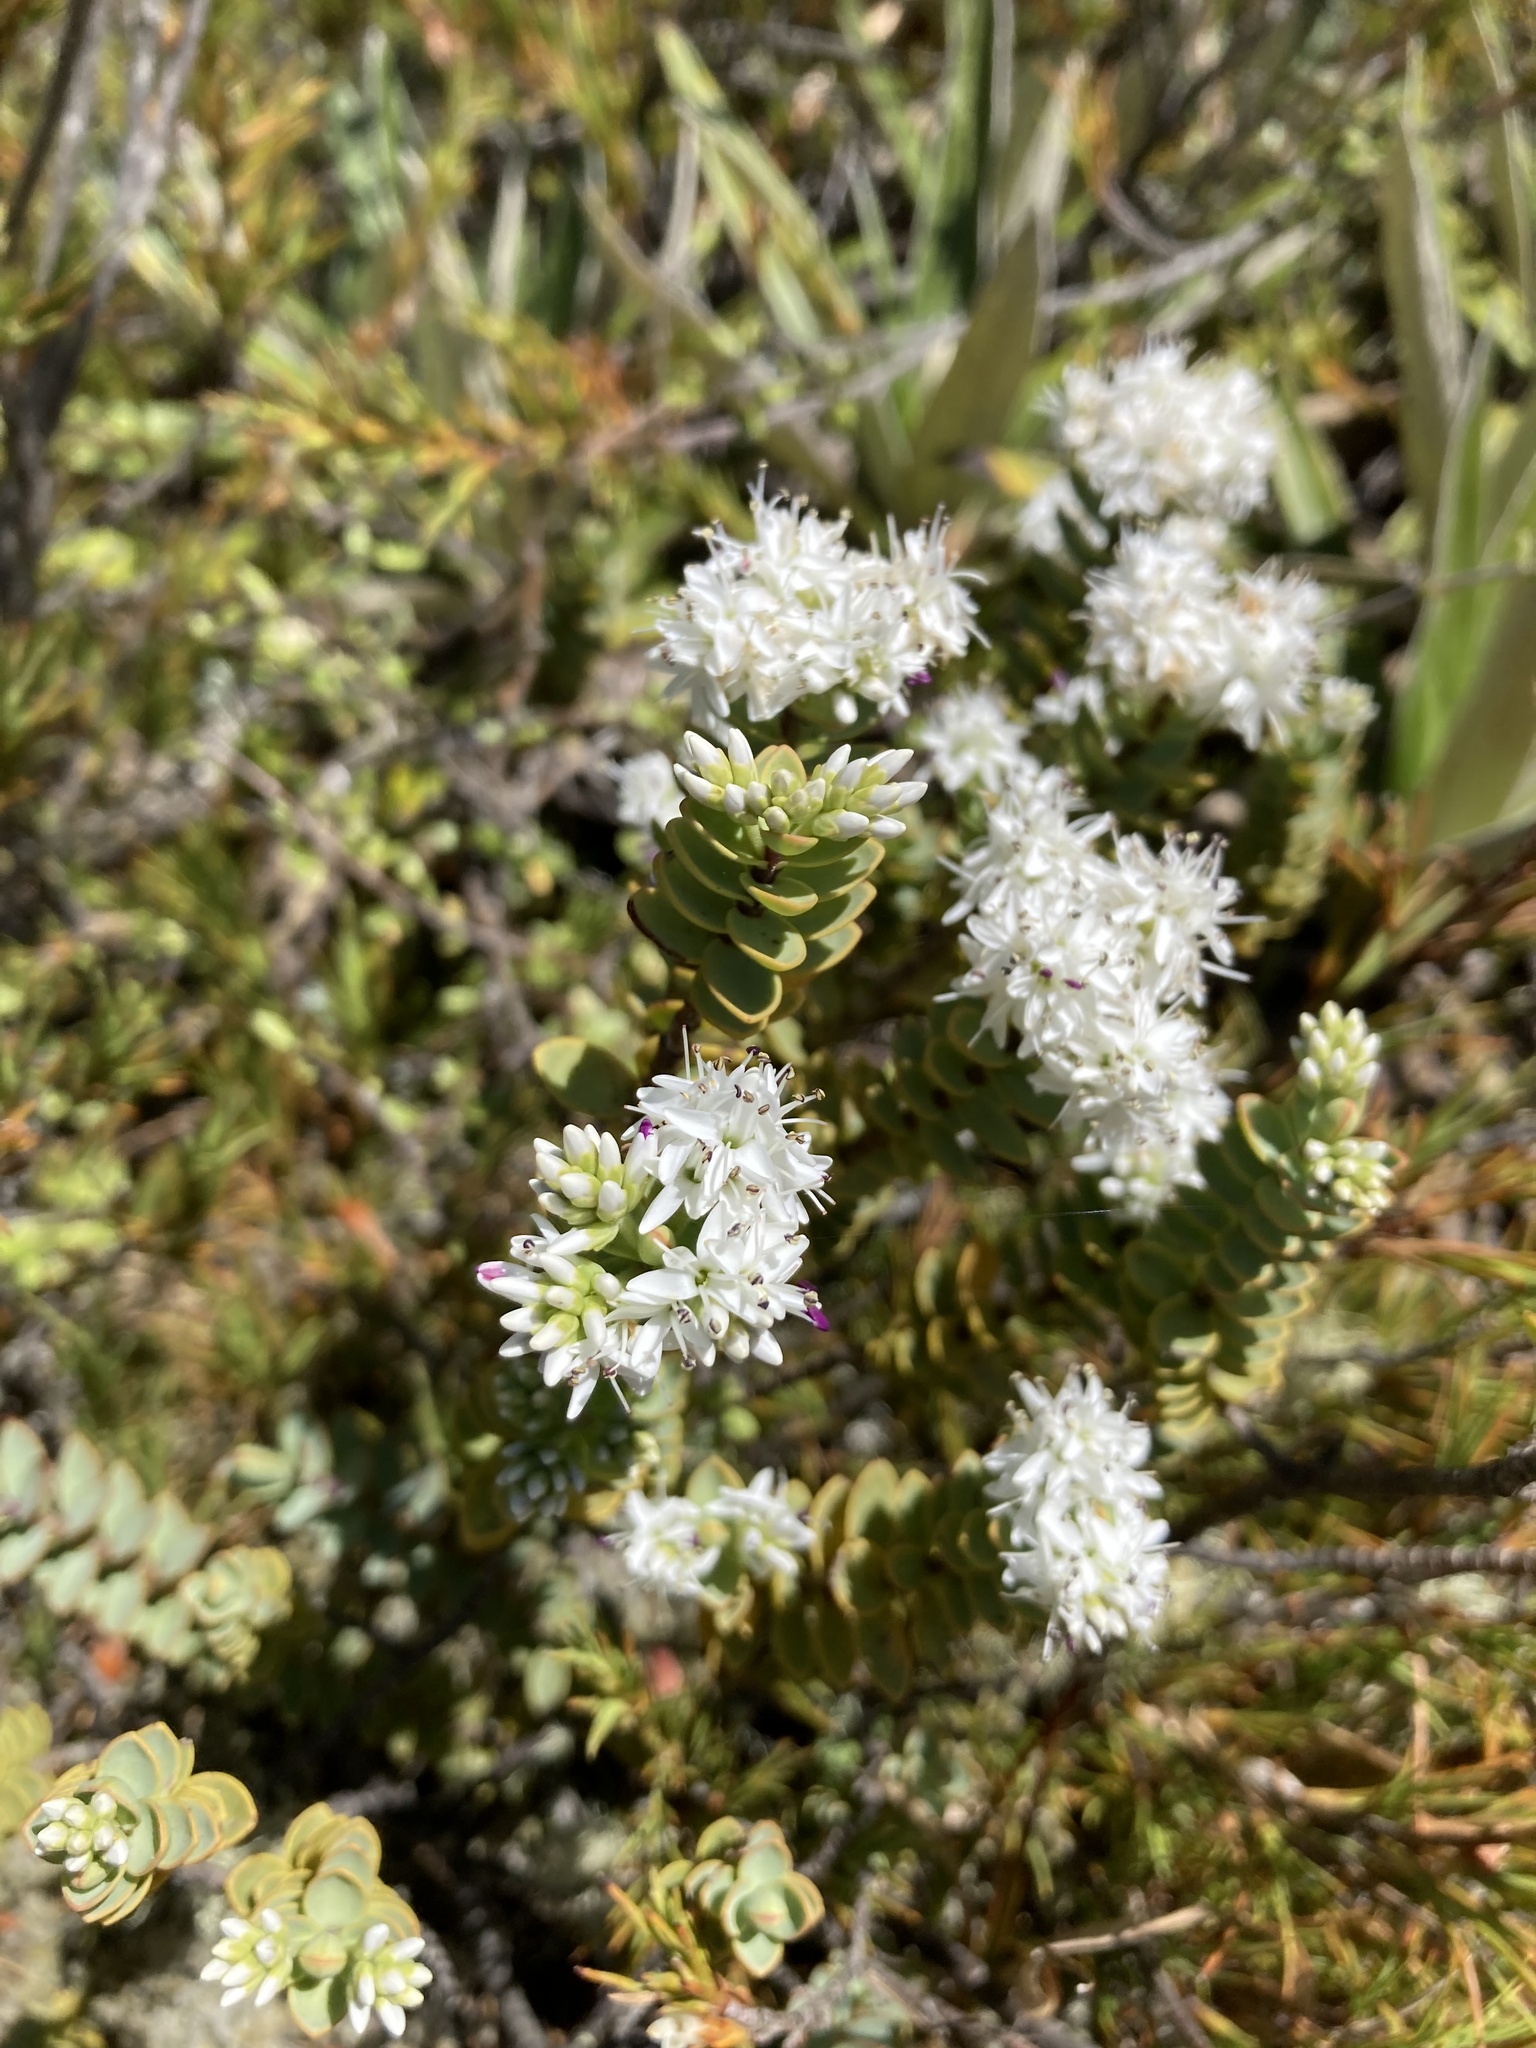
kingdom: Plantae
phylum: Tracheophyta
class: Magnoliopsida
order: Lamiales
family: Plantaginaceae
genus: Veronica
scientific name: Veronica pinguifolia
